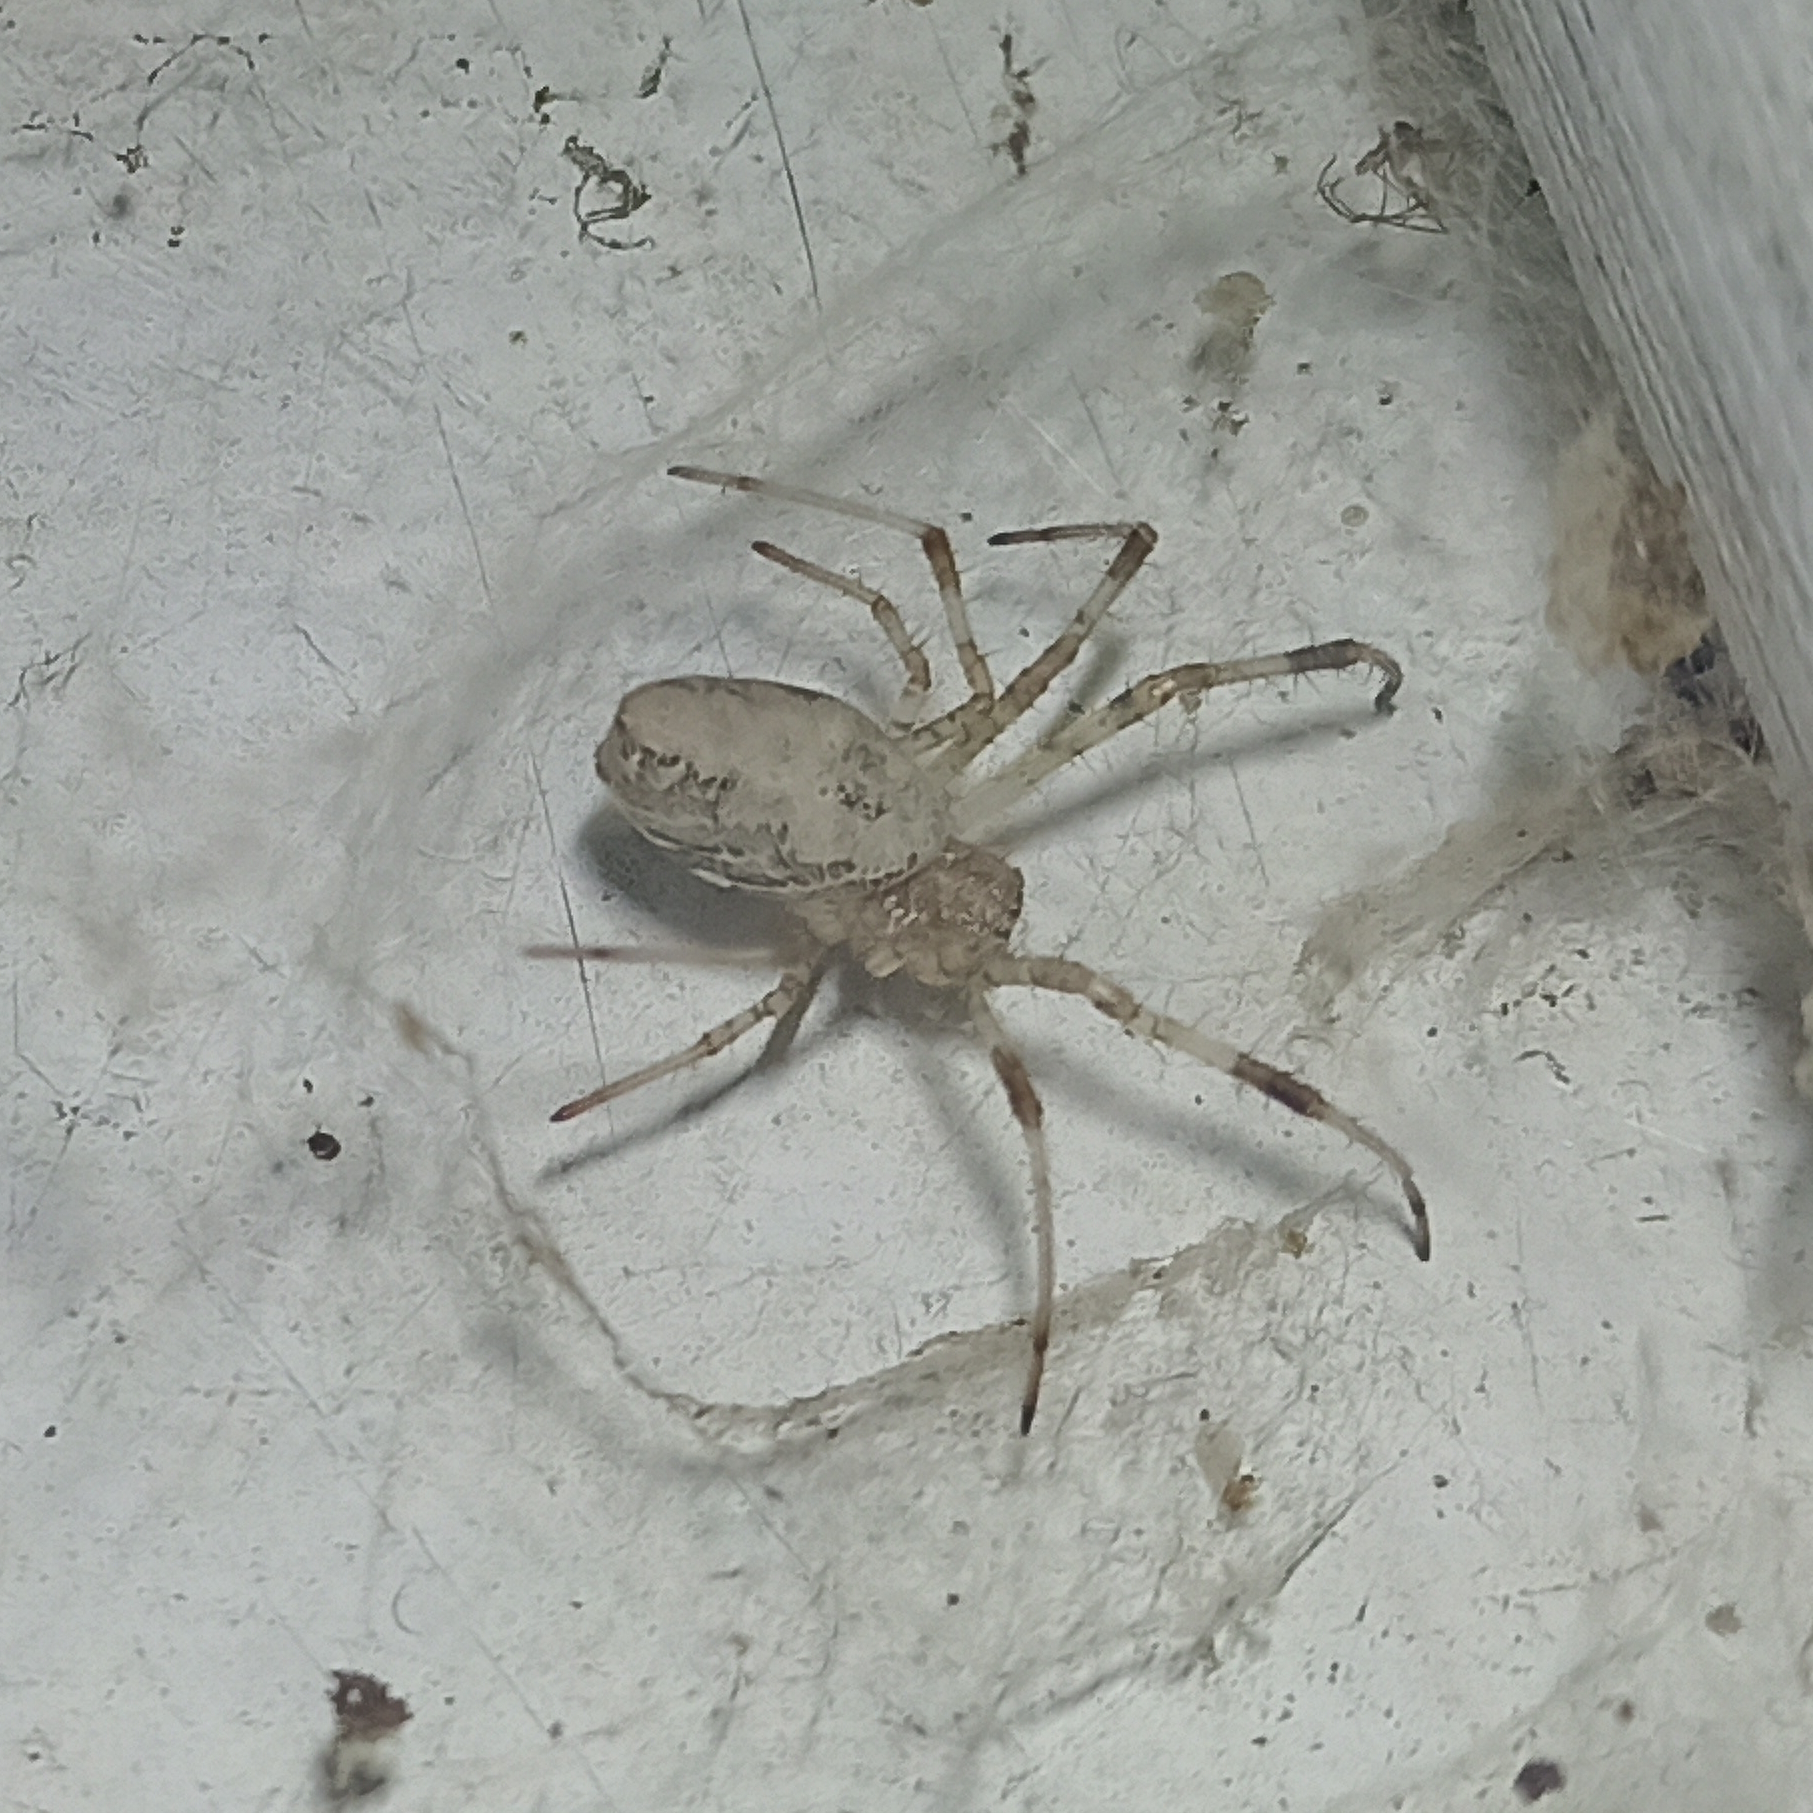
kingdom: Animalia
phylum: Arthropoda
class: Arachnida
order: Araneae
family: Araneidae
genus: Nephilingis
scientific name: Nephilingis cruentata
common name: African hermit spider
